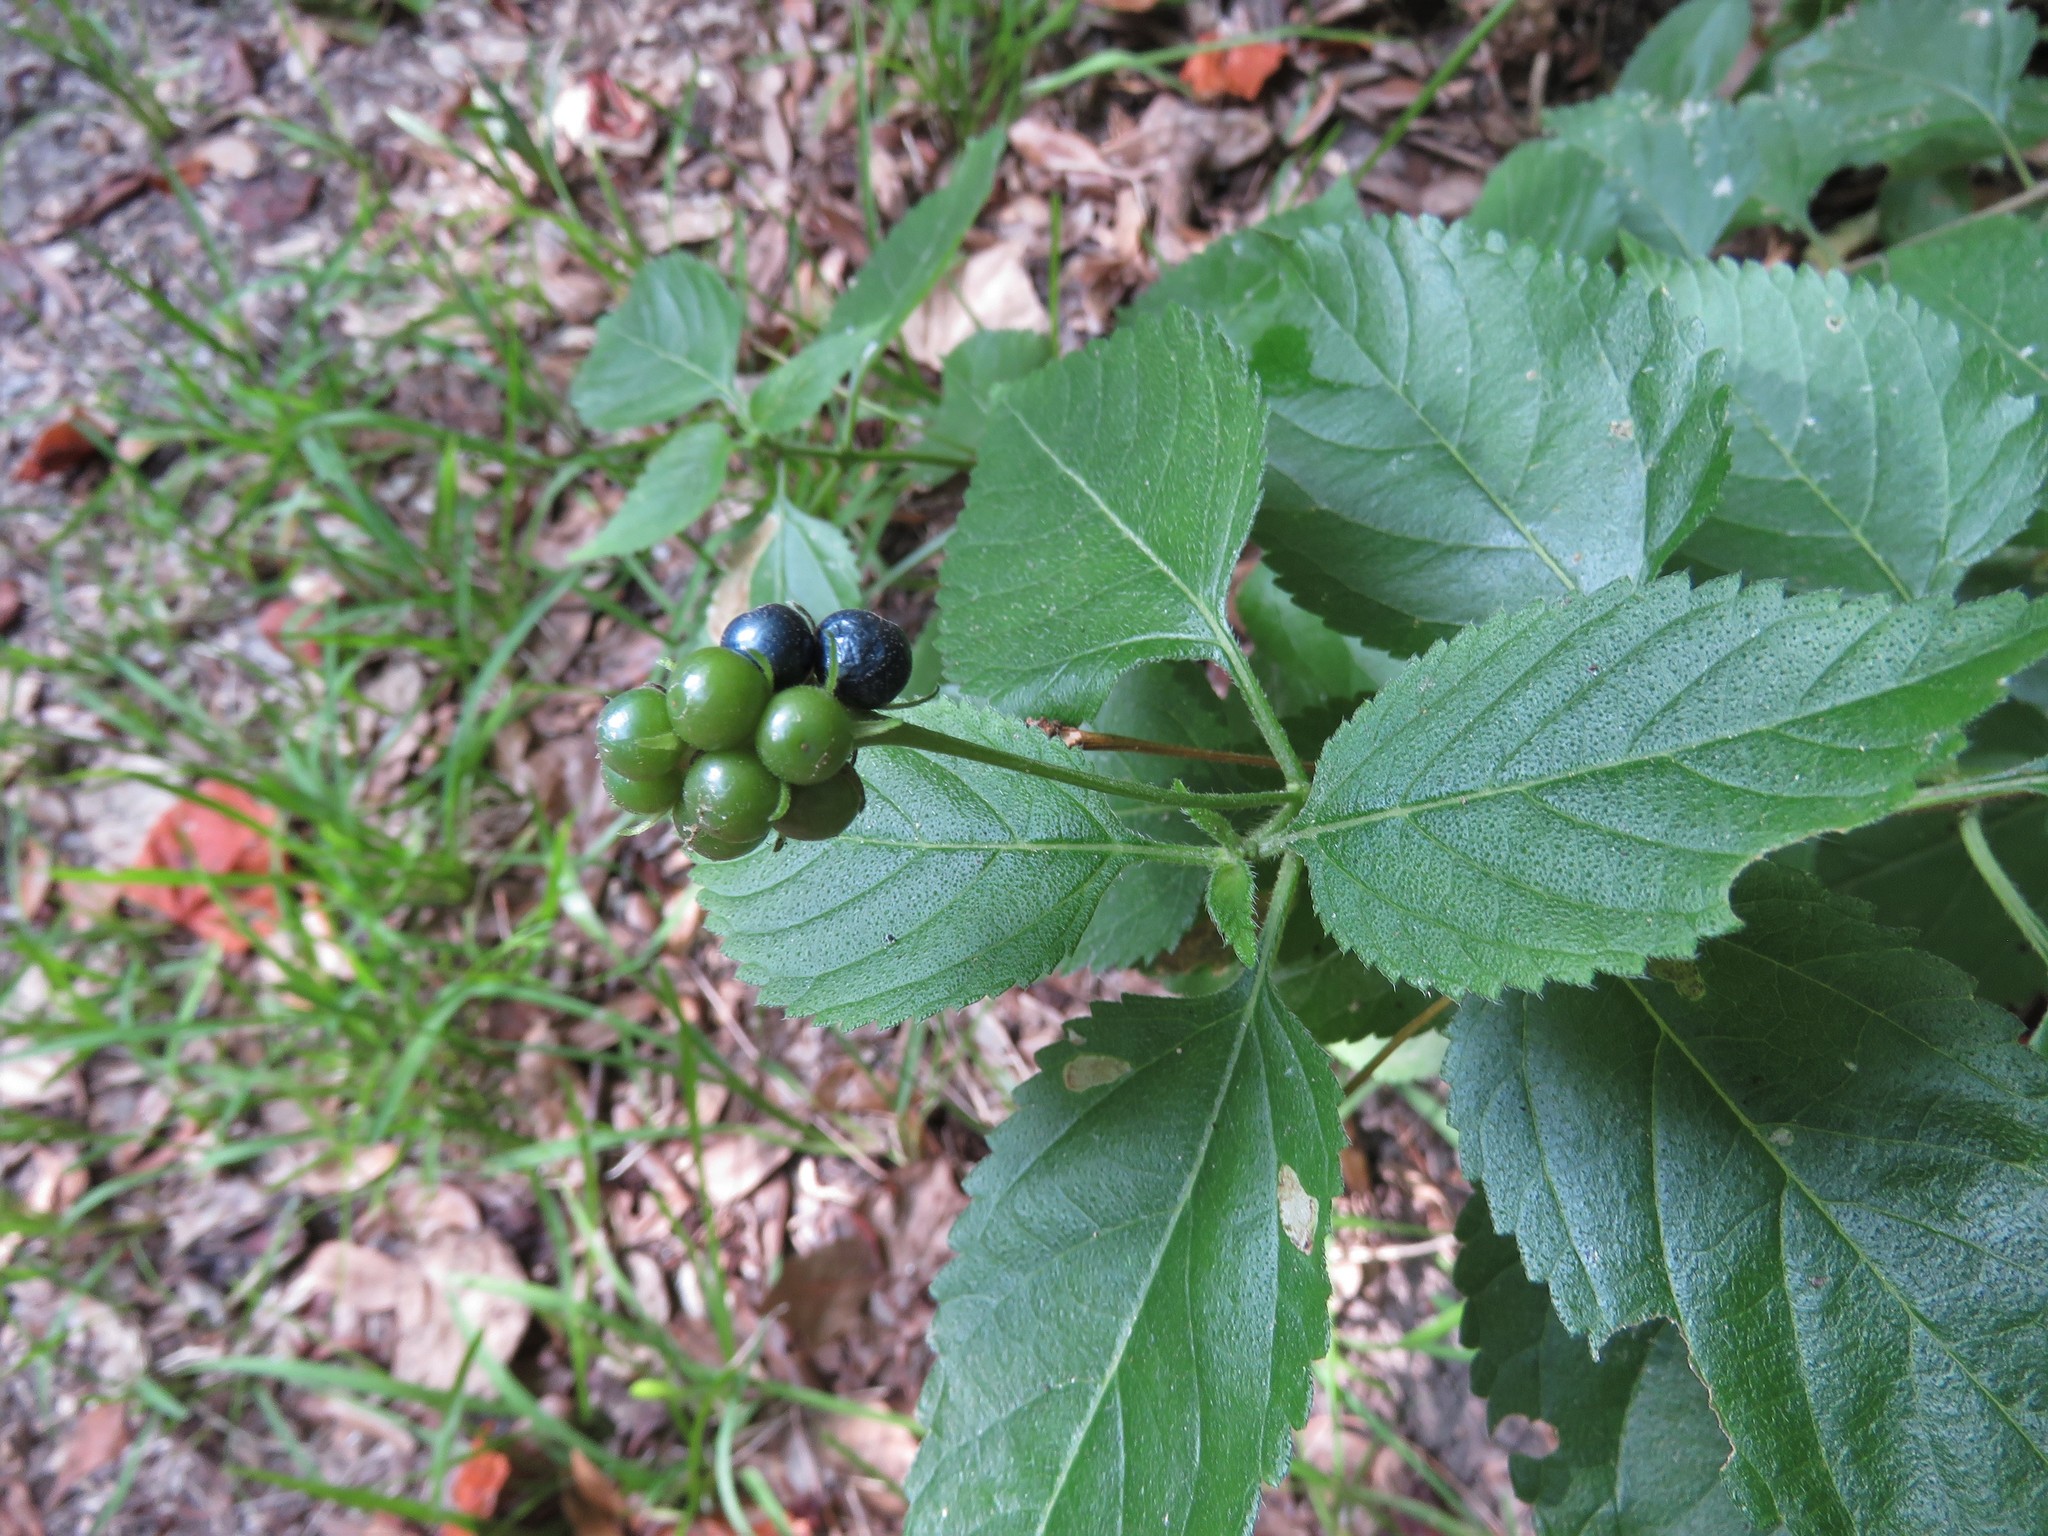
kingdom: Plantae
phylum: Tracheophyta
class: Magnoliopsida
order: Lamiales
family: Verbenaceae
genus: Lantana
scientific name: Lantana camara
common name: Lantana
